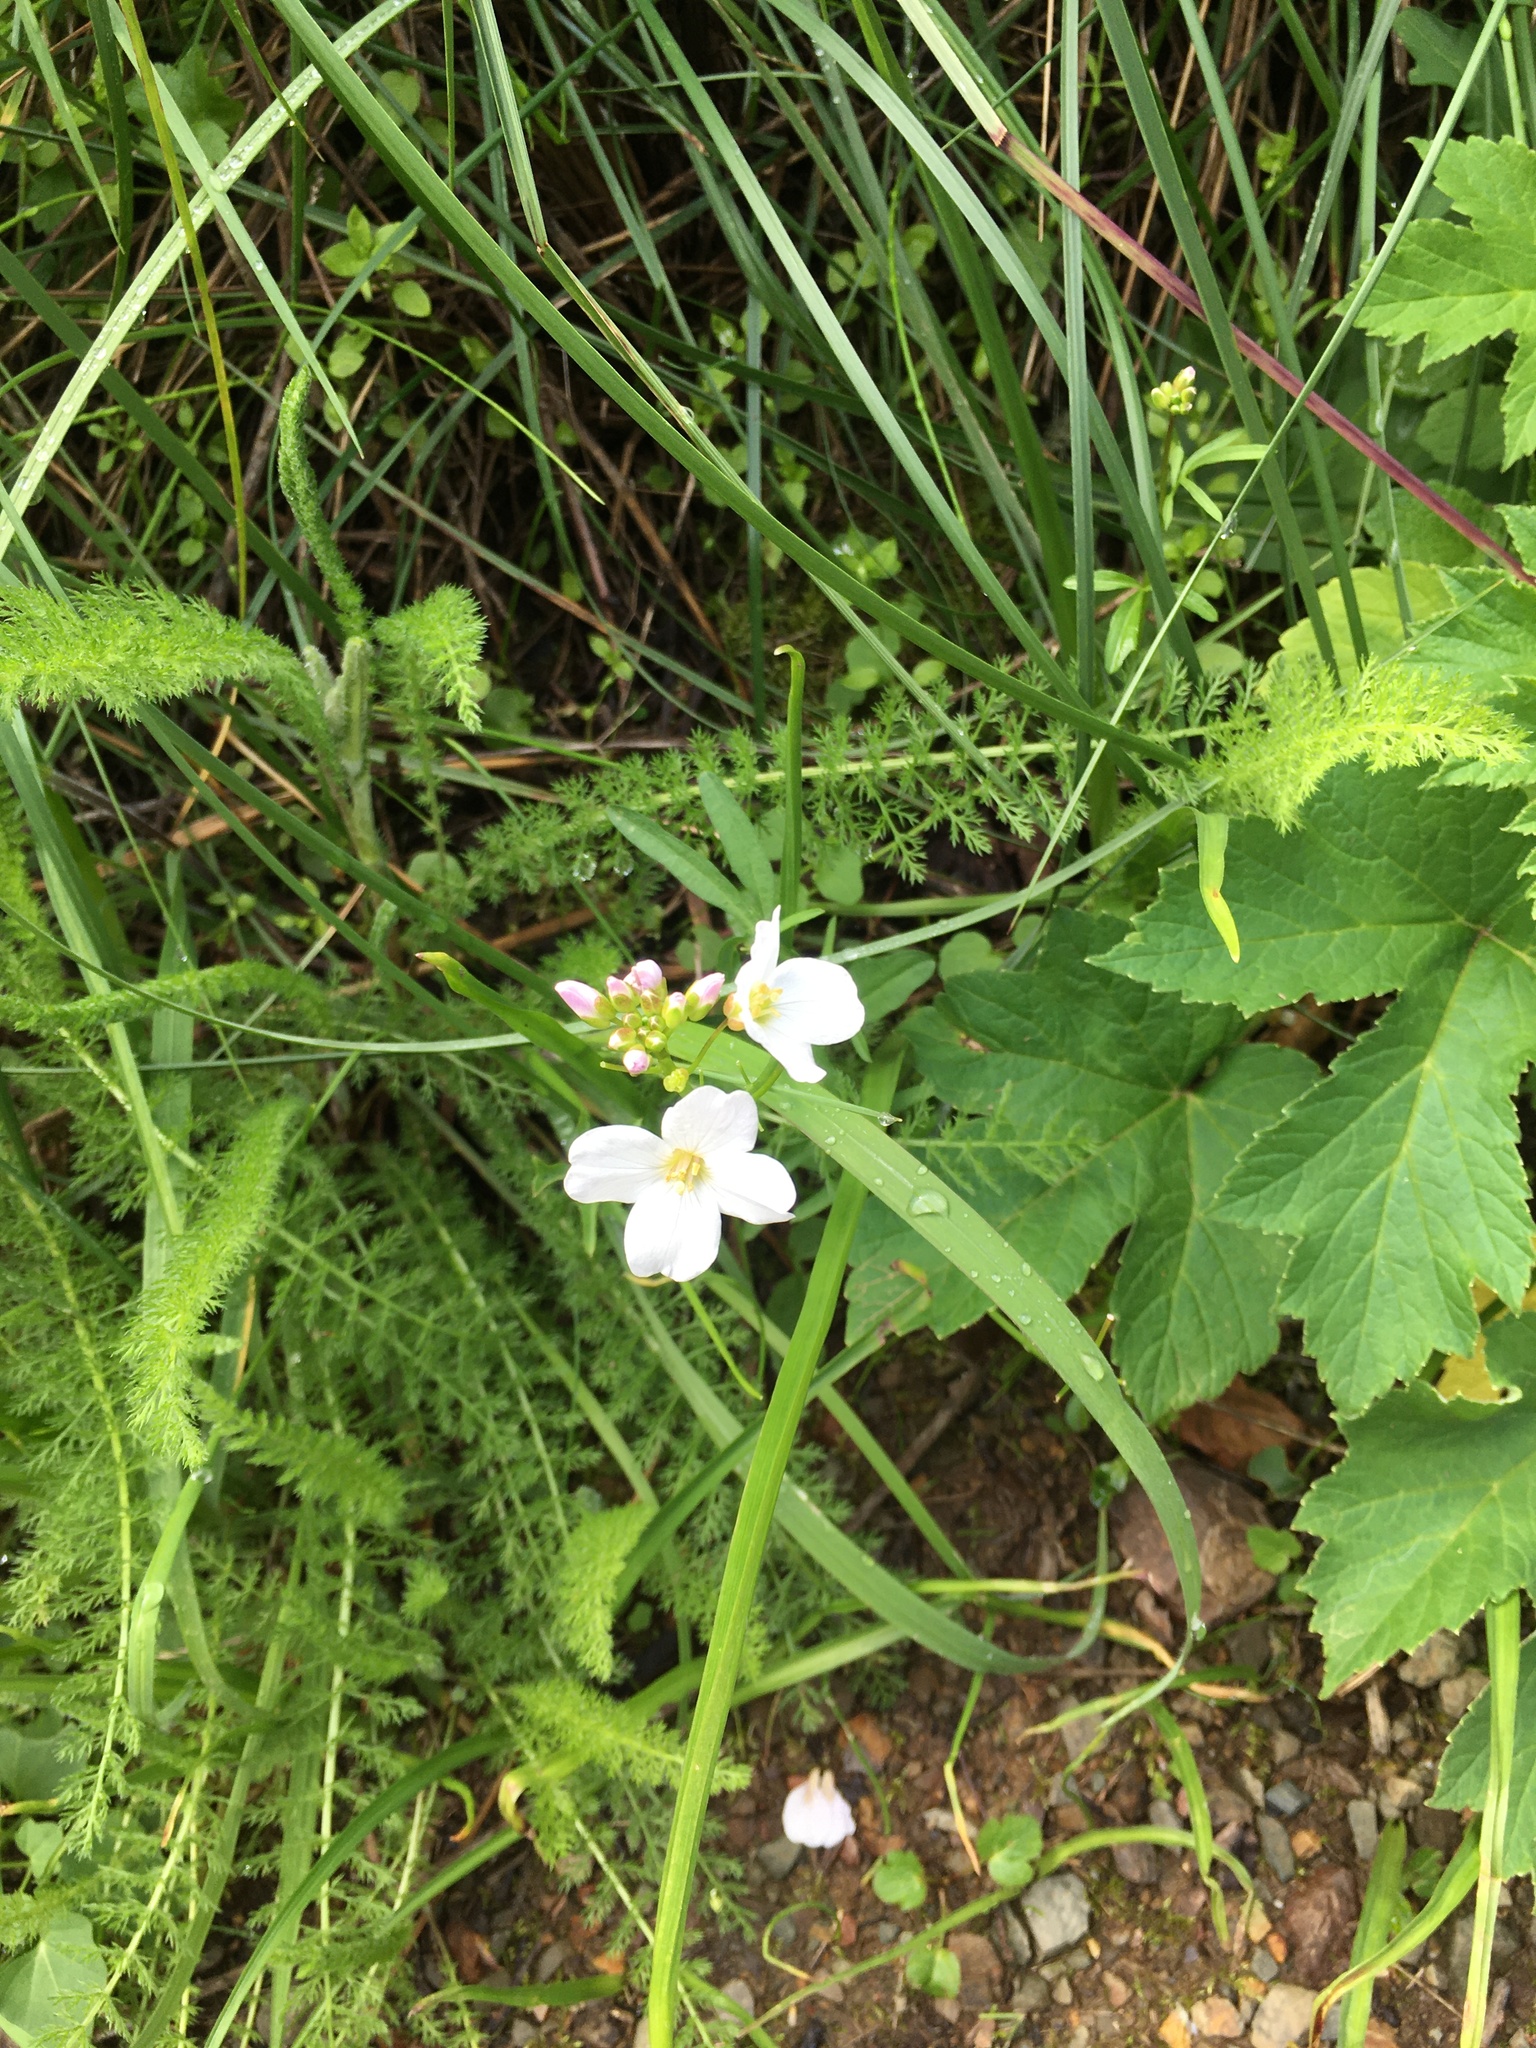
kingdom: Plantae
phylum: Tracheophyta
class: Magnoliopsida
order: Brassicales
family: Brassicaceae
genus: Cardamine
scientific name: Cardamine californica
